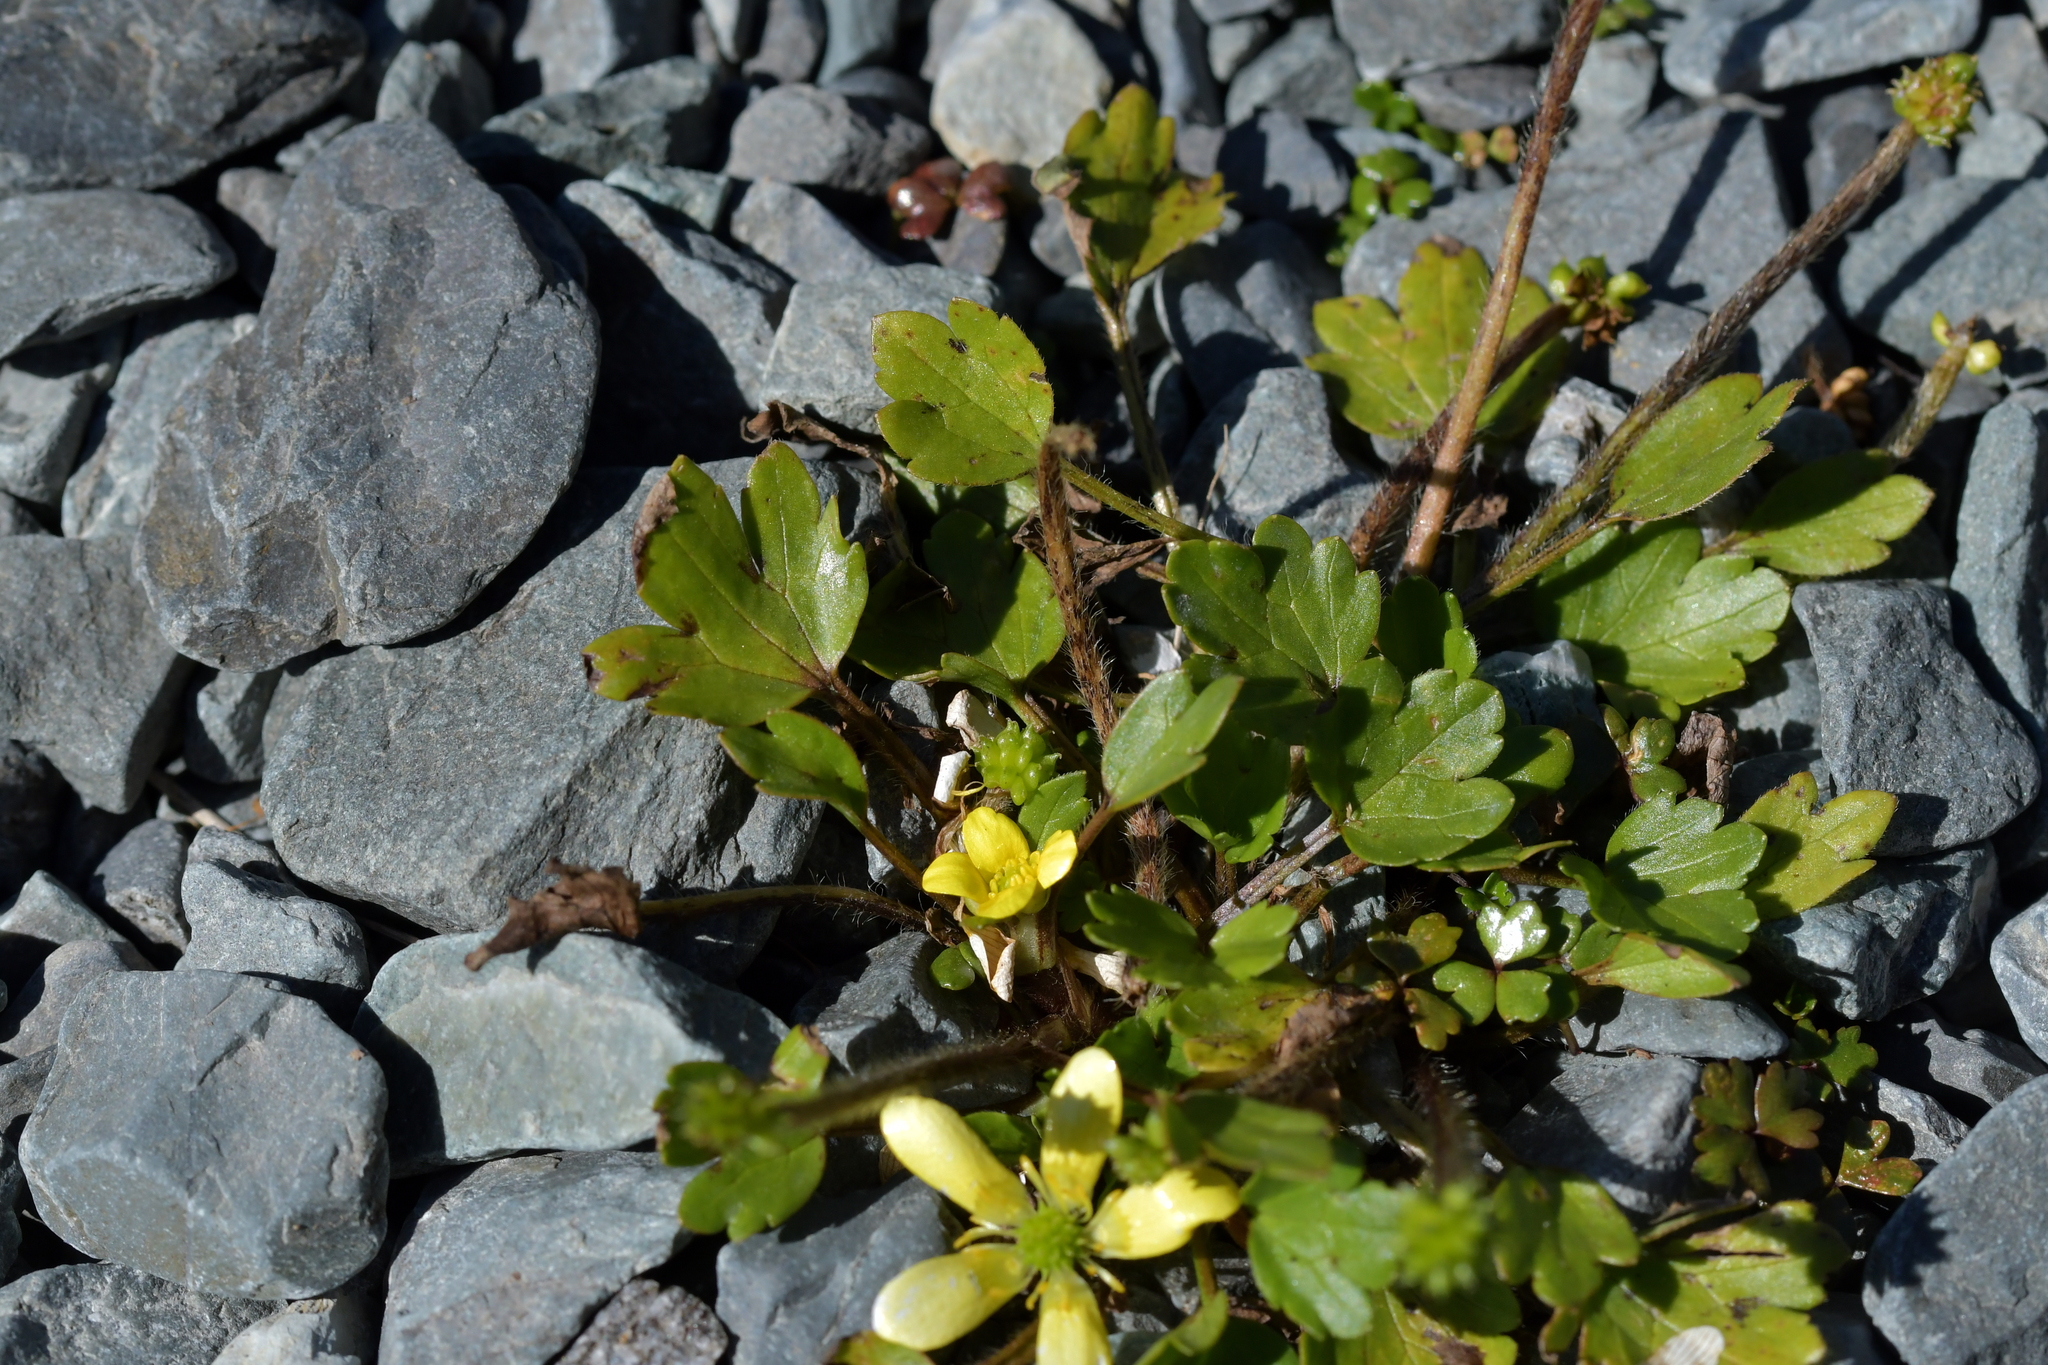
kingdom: Plantae
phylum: Tracheophyta
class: Magnoliopsida
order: Ranunculales
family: Ranunculaceae
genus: Ranunculus
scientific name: Ranunculus foliosus
